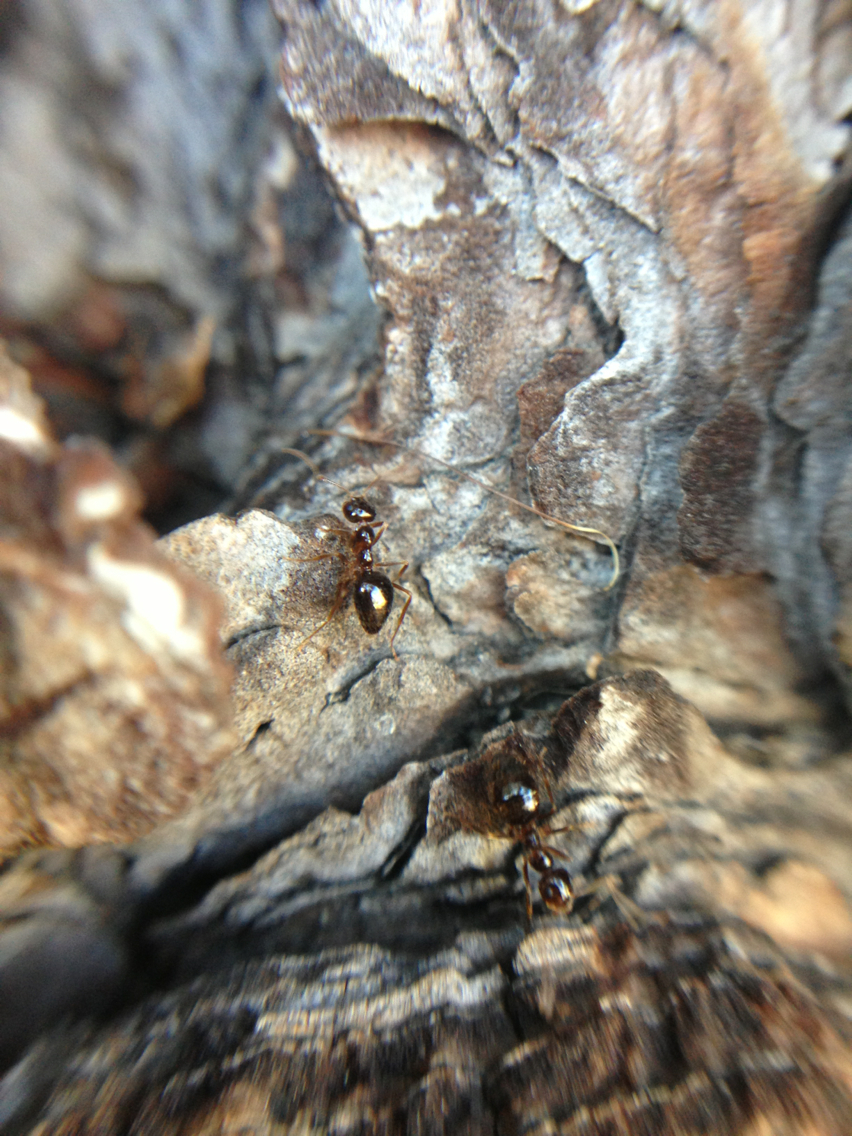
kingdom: Animalia
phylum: Arthropoda
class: Insecta
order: Hymenoptera
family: Formicidae
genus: Prenolepis
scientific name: Prenolepis imparis
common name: Small honey ant
